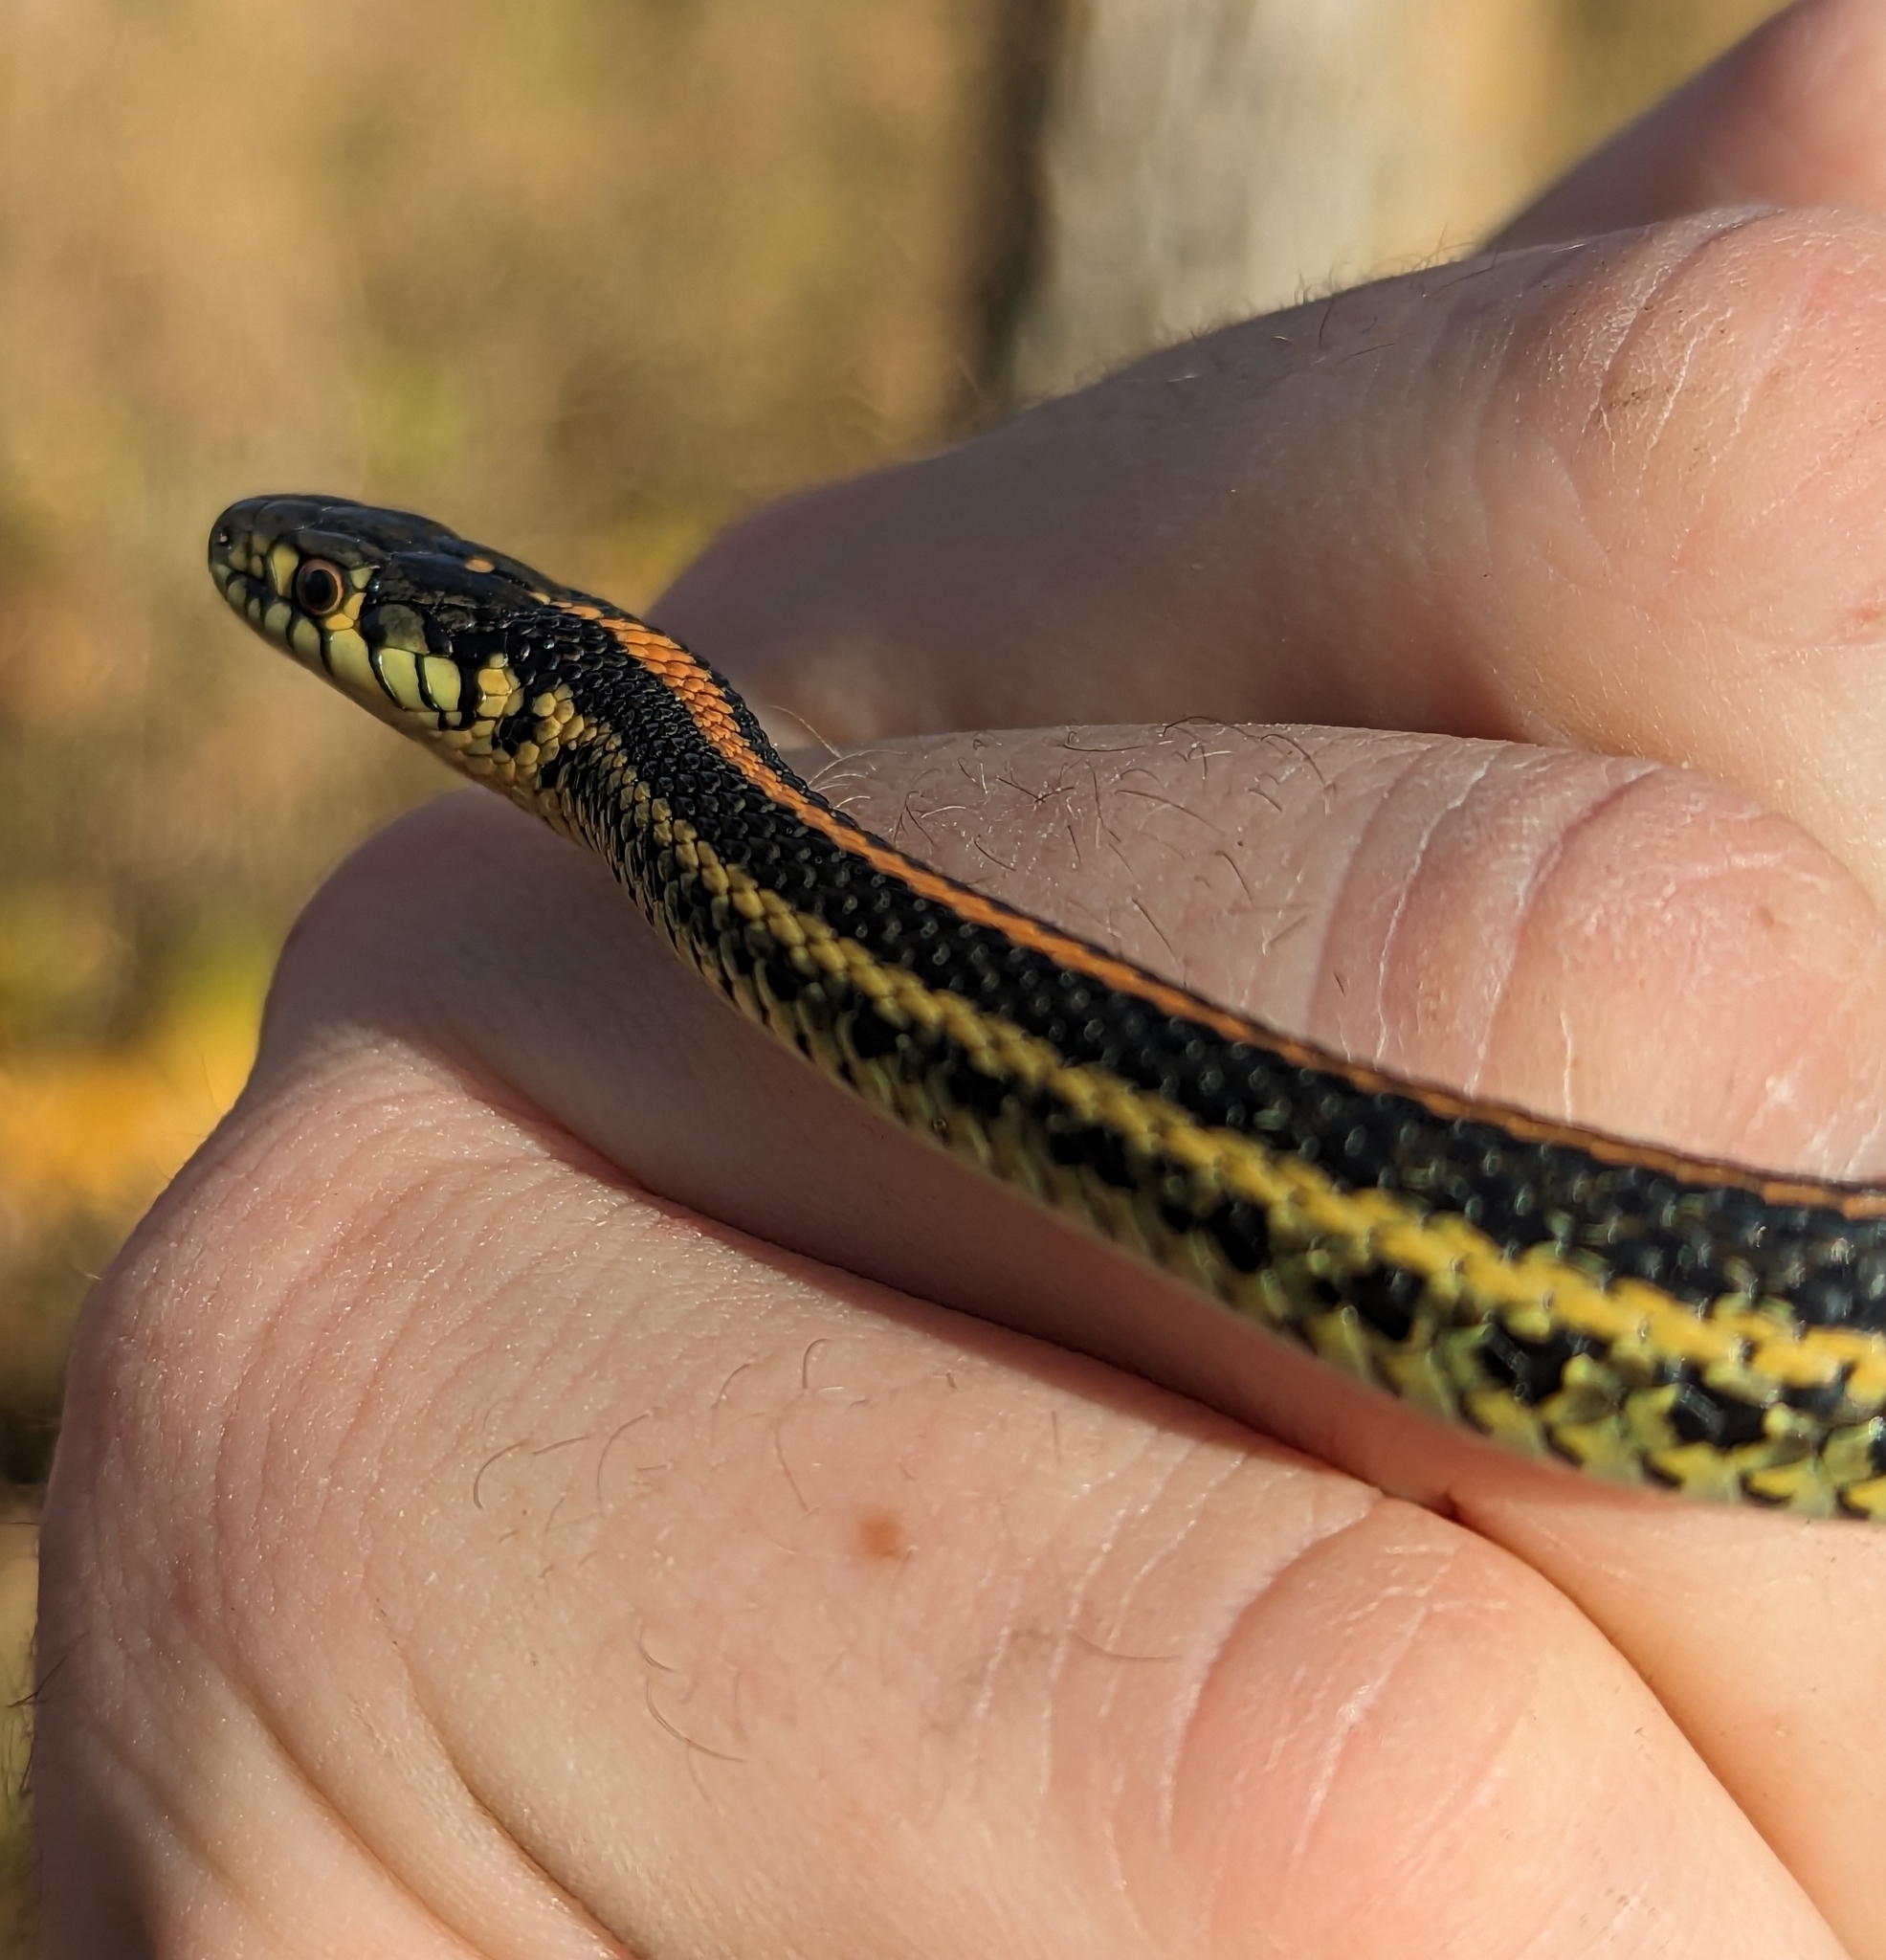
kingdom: Animalia
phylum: Chordata
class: Squamata
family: Colubridae
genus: Thamnophis
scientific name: Thamnophis radix
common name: Plains garter snake
